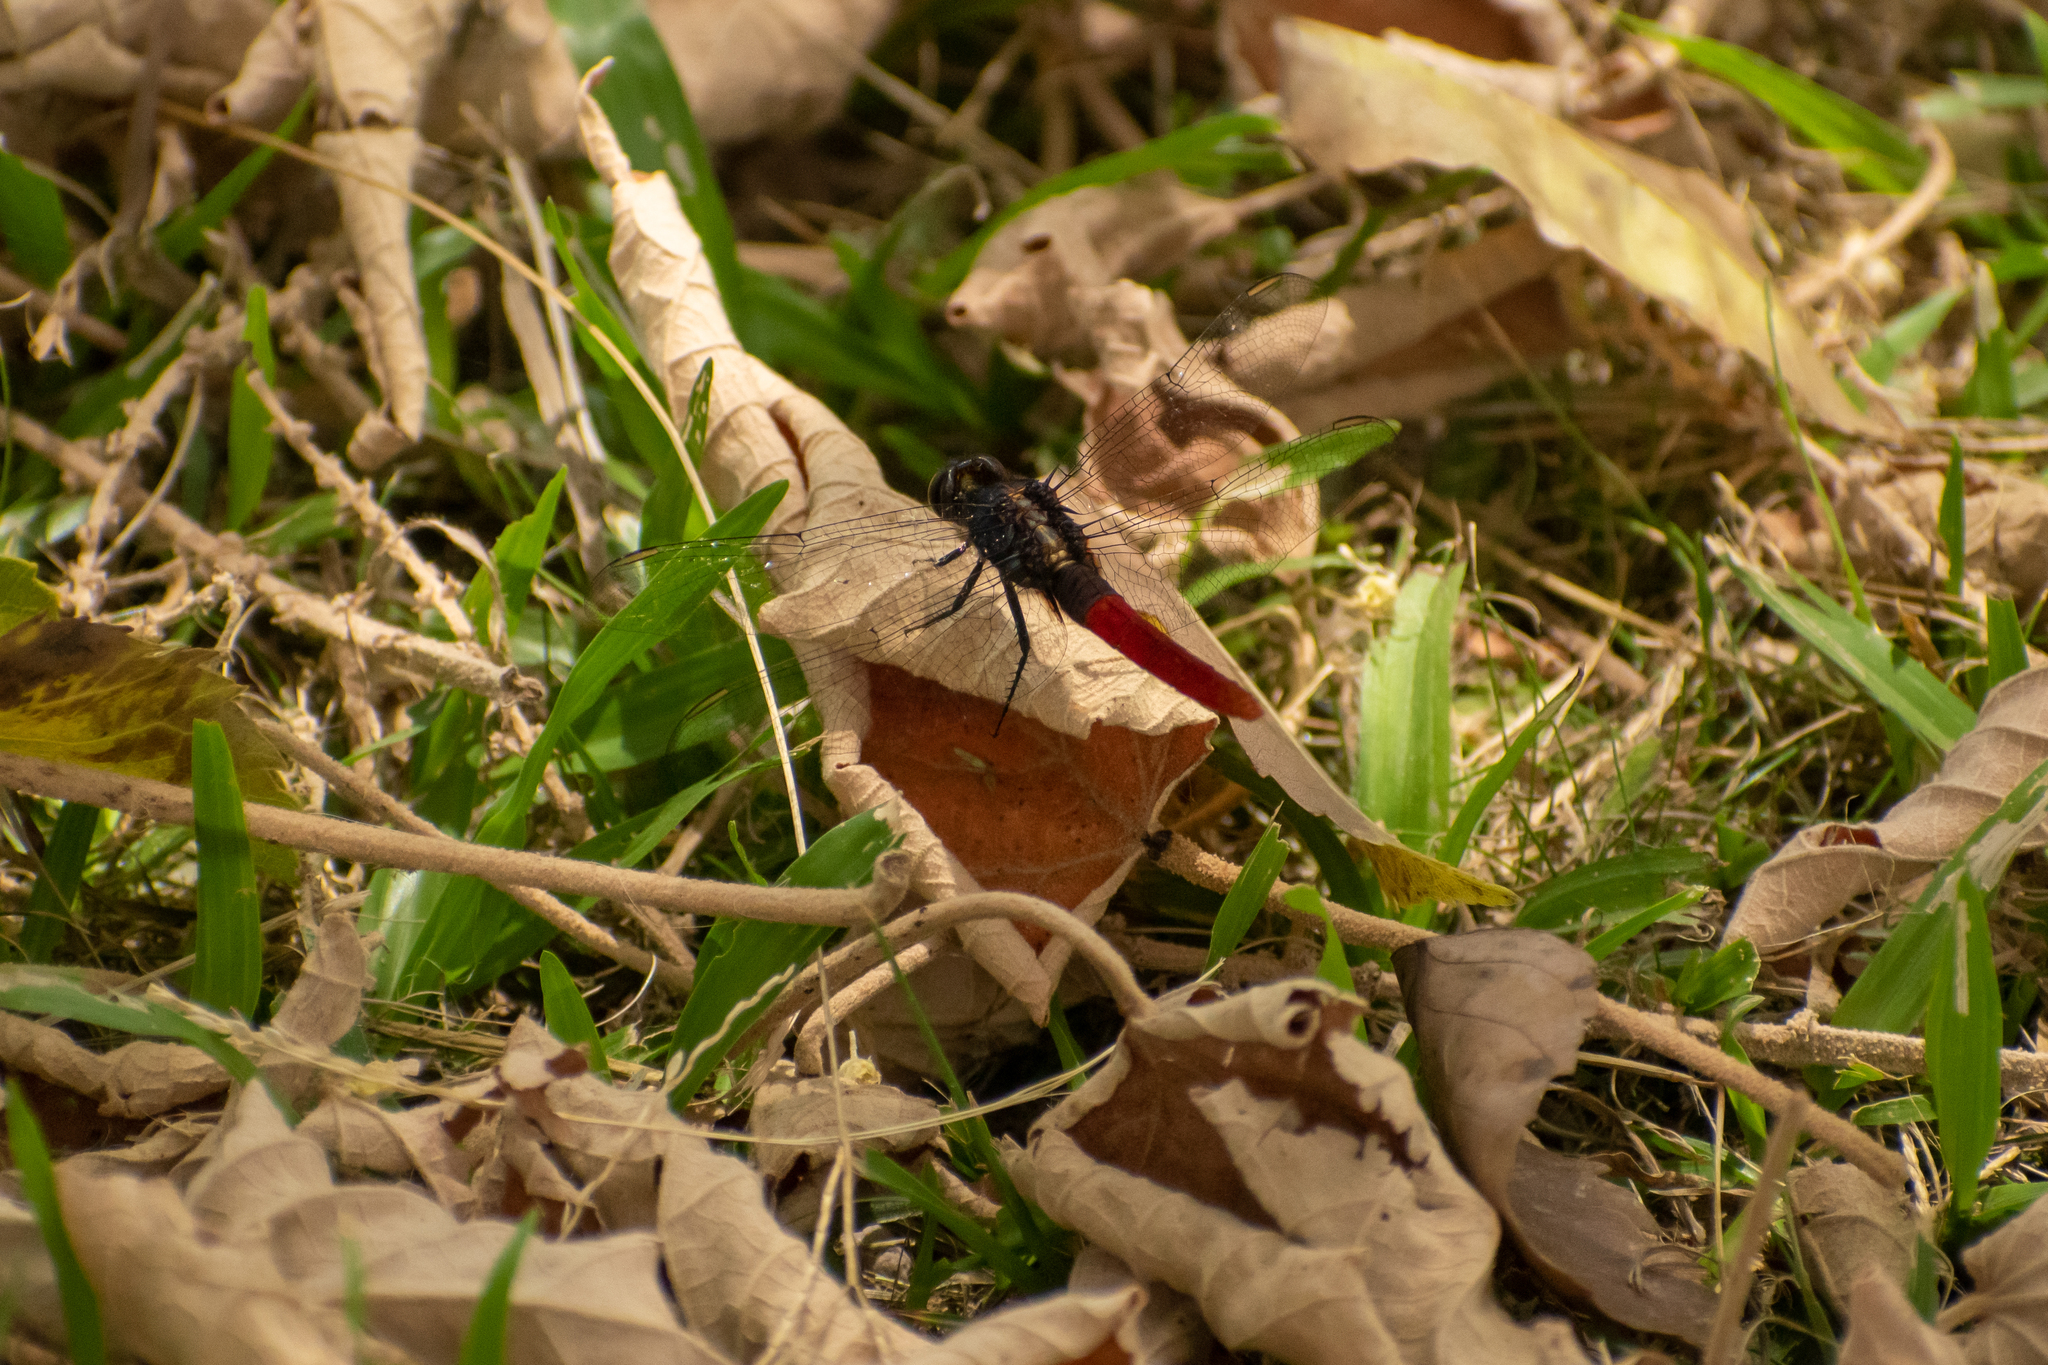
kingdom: Animalia
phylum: Arthropoda
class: Insecta
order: Odonata
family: Libellulidae
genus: Erythemis
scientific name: Erythemis peruviana
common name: Flame-tailed pondhawk
